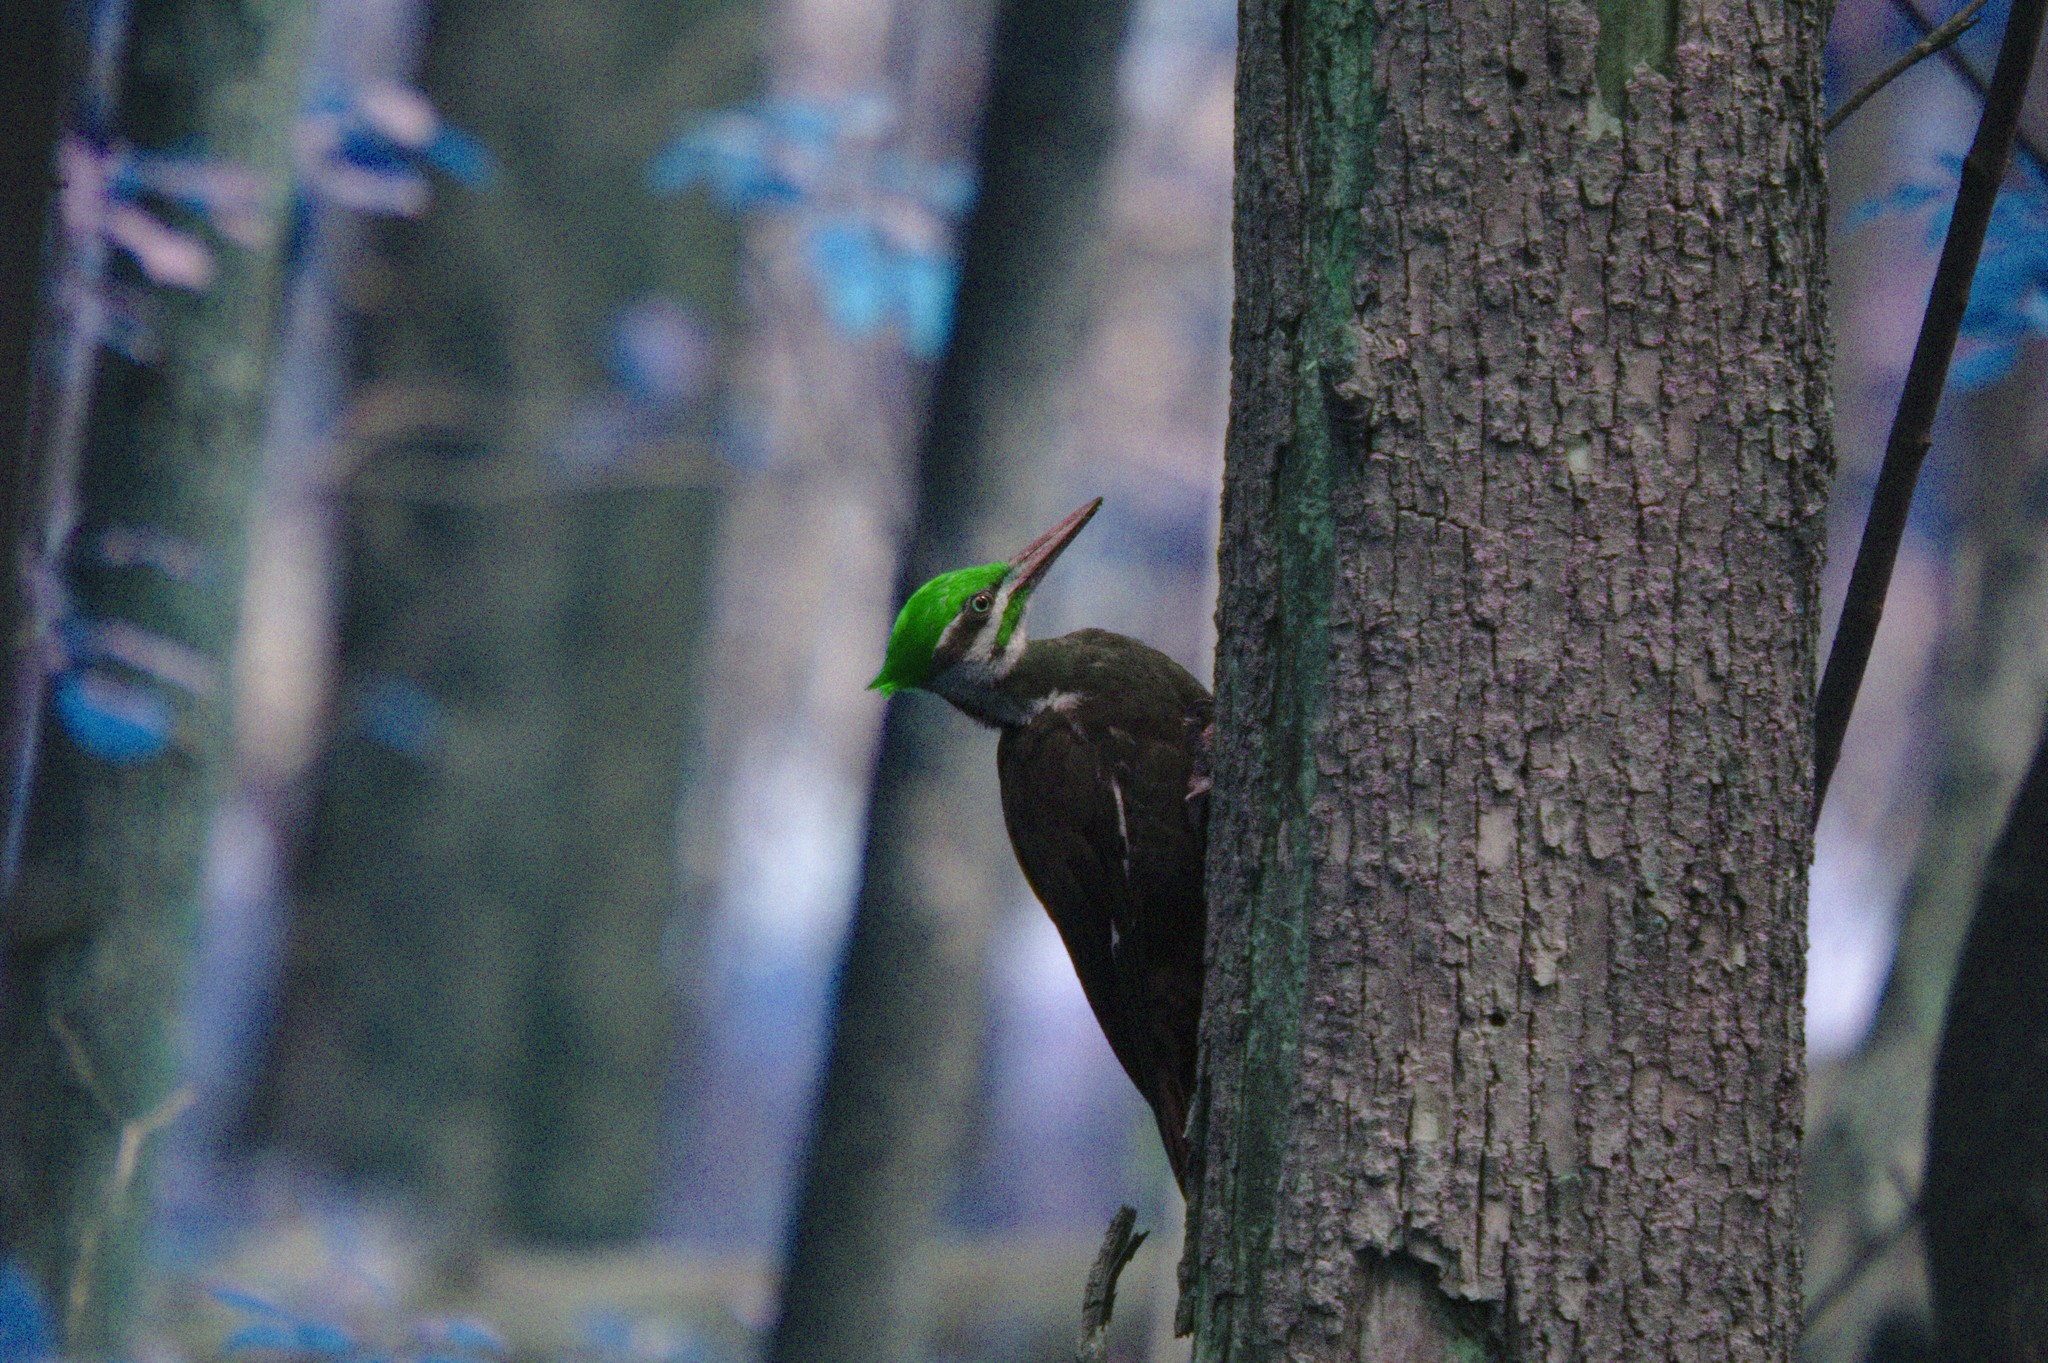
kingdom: Animalia
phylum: Chordata
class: Aves
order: Piciformes
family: Picidae
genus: Dryocopus
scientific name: Dryocopus pileatus
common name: Pileated woodpecker
